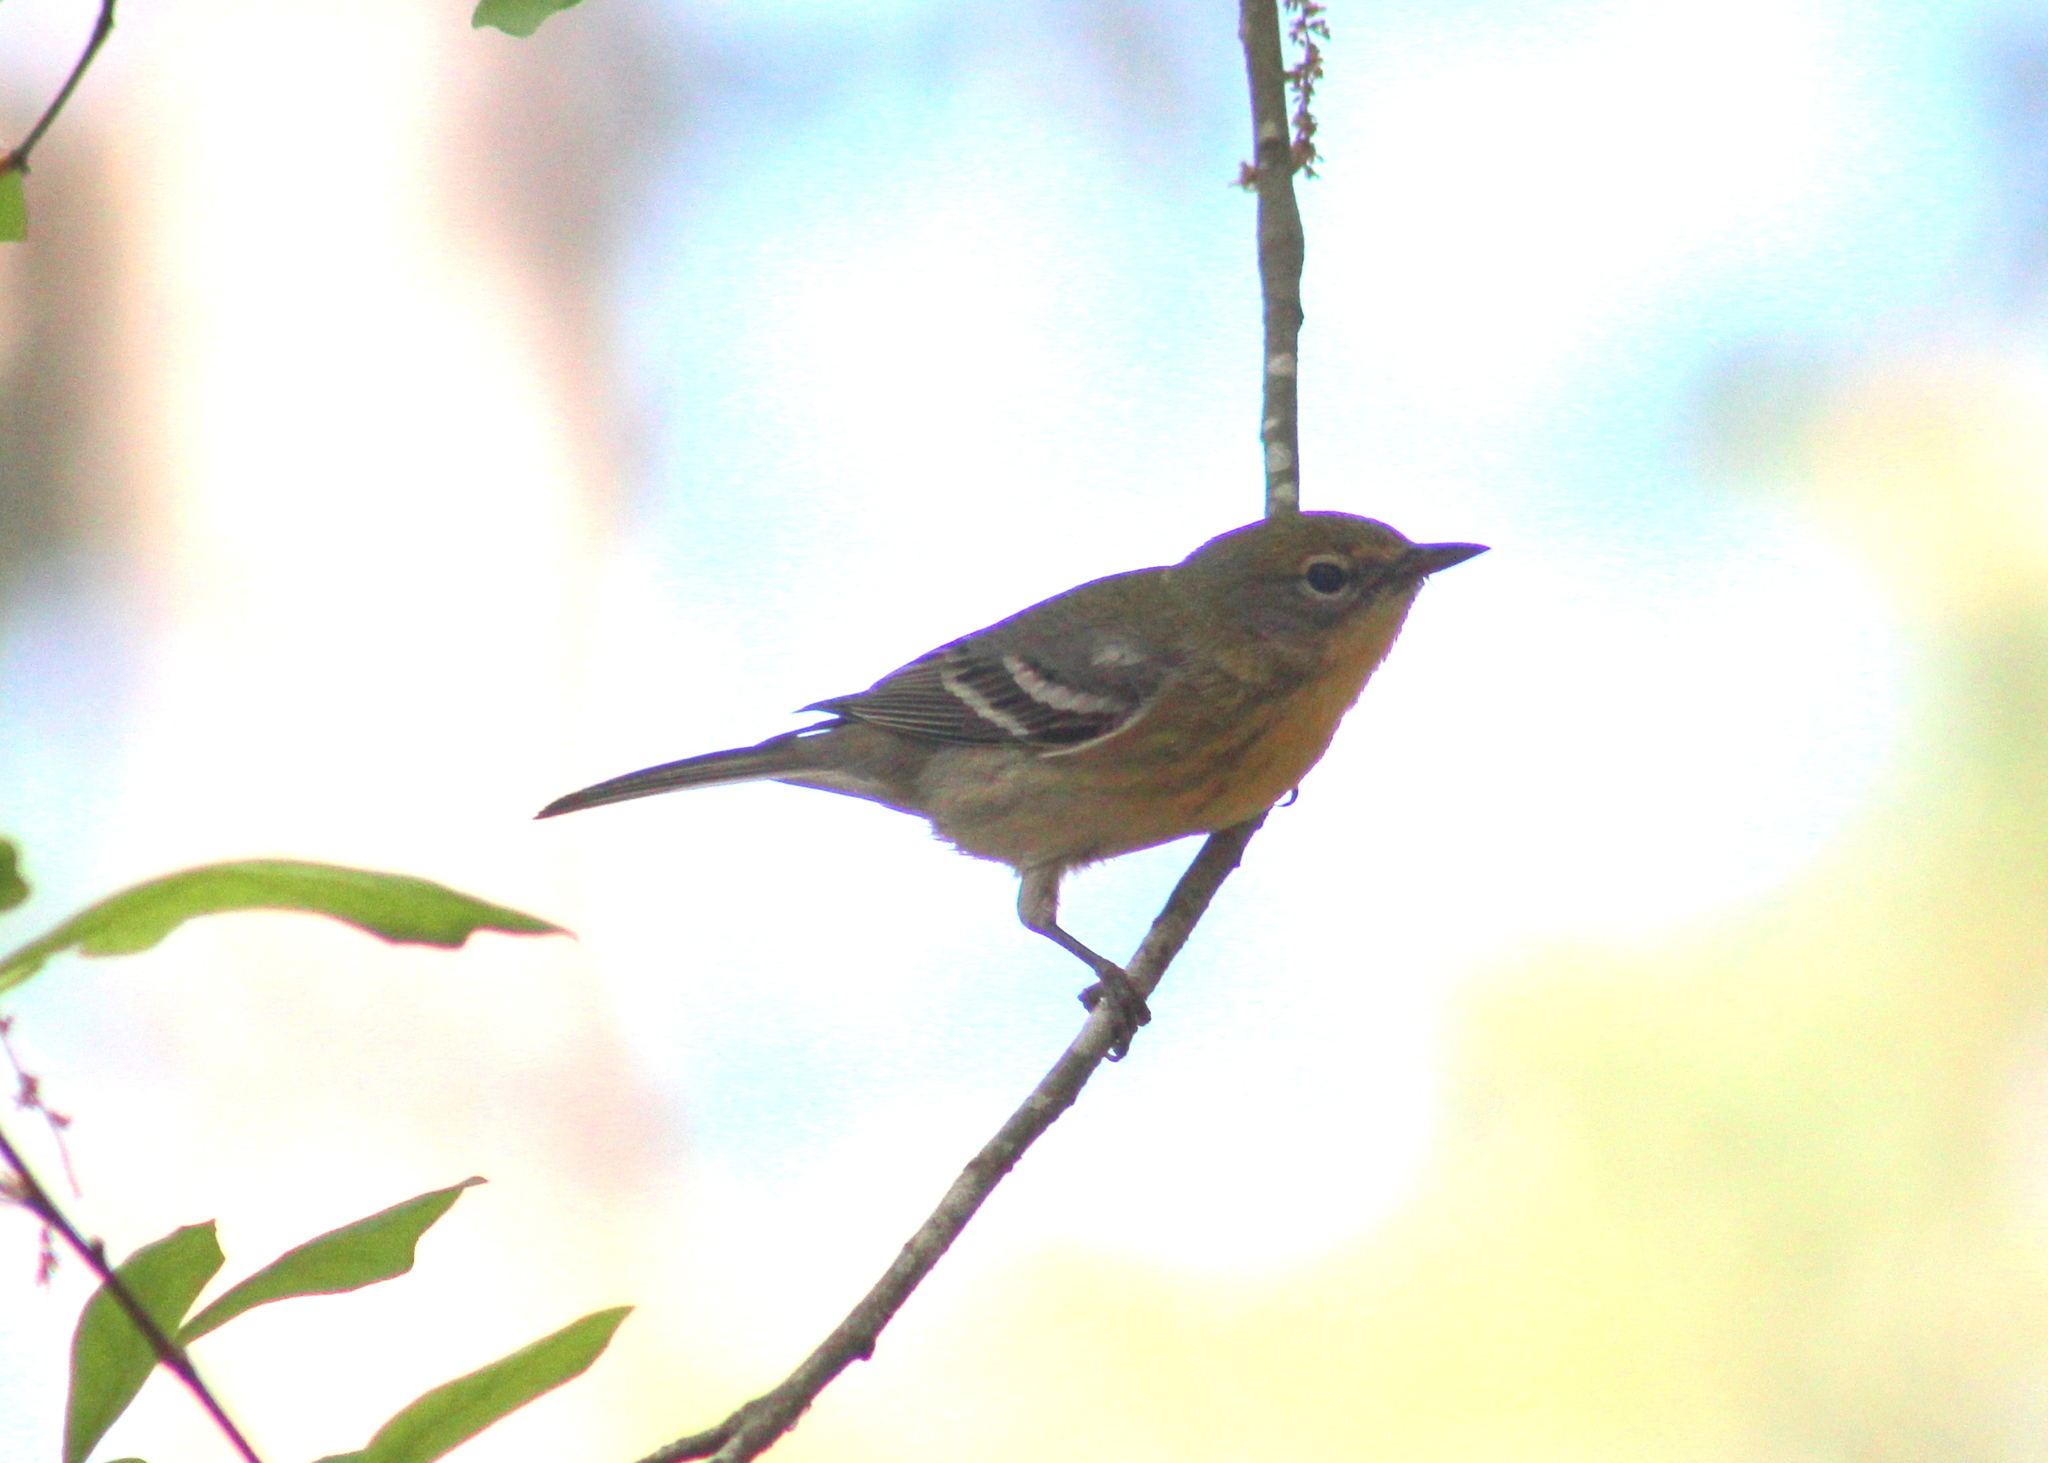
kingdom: Animalia
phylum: Chordata
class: Aves
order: Passeriformes
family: Parulidae
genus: Setophaga
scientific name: Setophaga pinus
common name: Pine warbler
